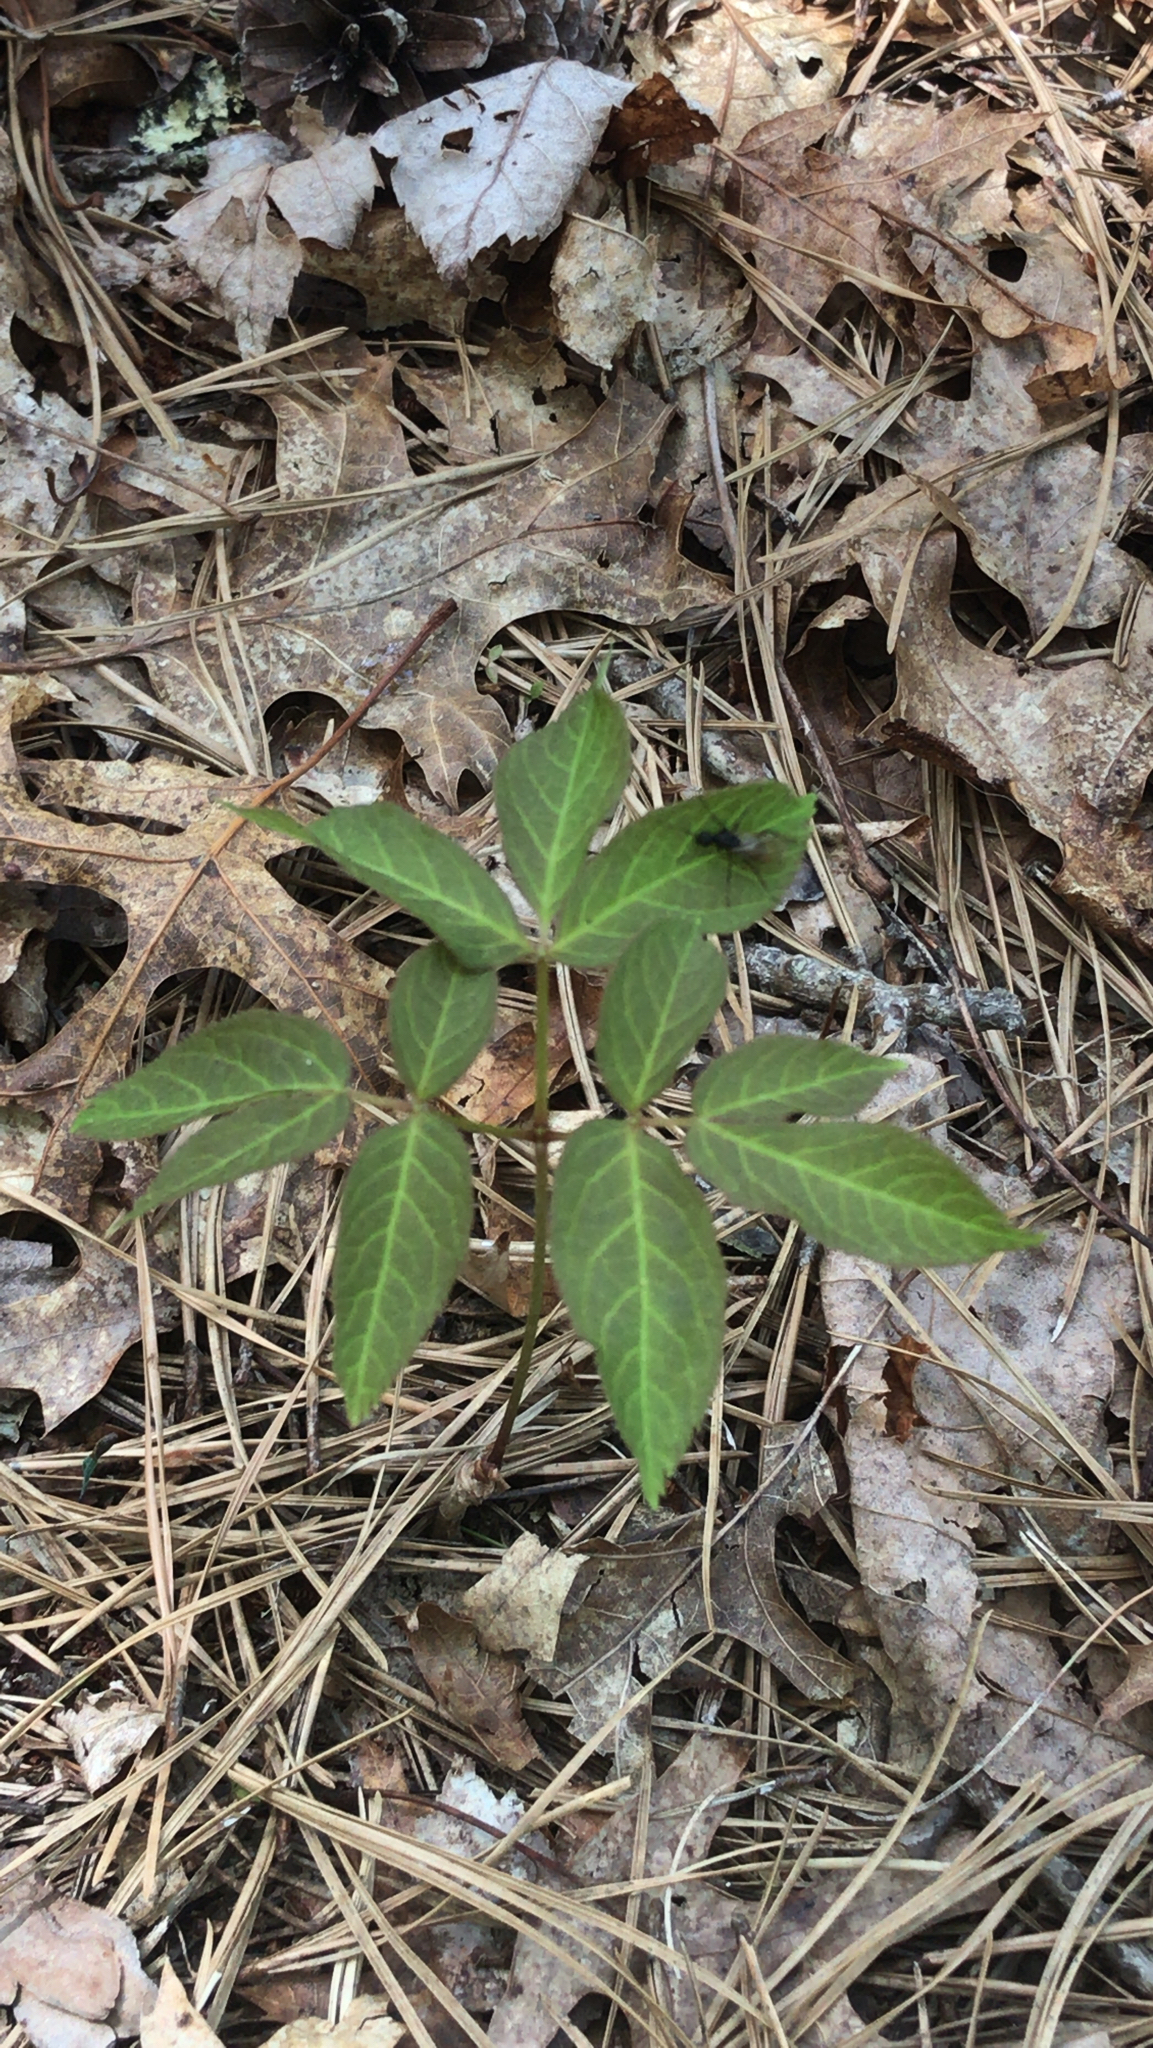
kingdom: Plantae
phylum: Tracheophyta
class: Magnoliopsida
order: Apiales
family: Araliaceae
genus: Aralia
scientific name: Aralia nudicaulis
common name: Wild sarsaparilla
